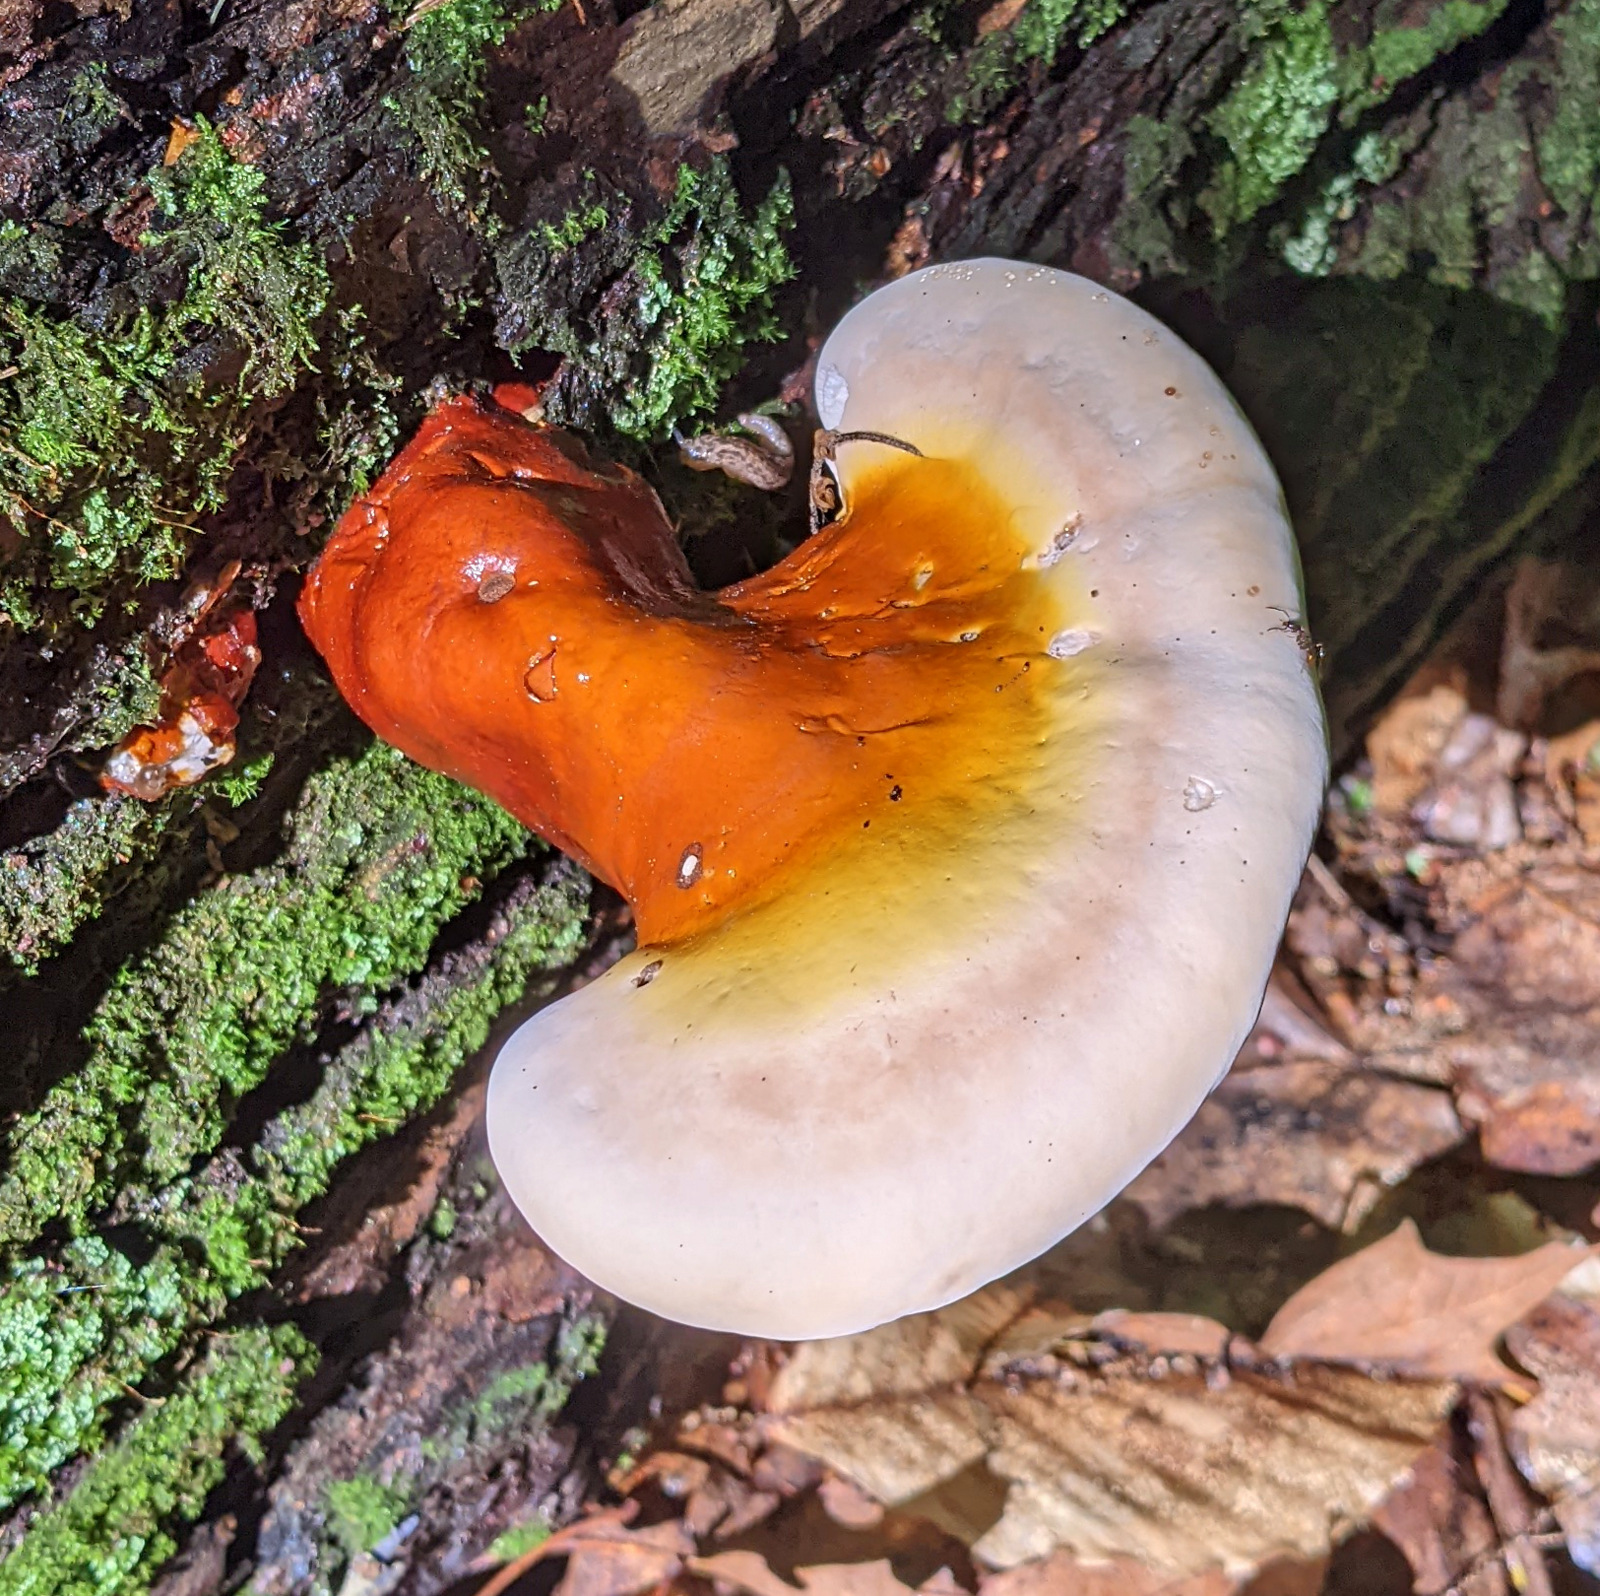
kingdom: Fungi
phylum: Basidiomycota
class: Agaricomycetes
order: Polyporales
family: Polyporaceae
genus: Ganoderma
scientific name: Ganoderma tsugae
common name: Hemlock varnish shelf
